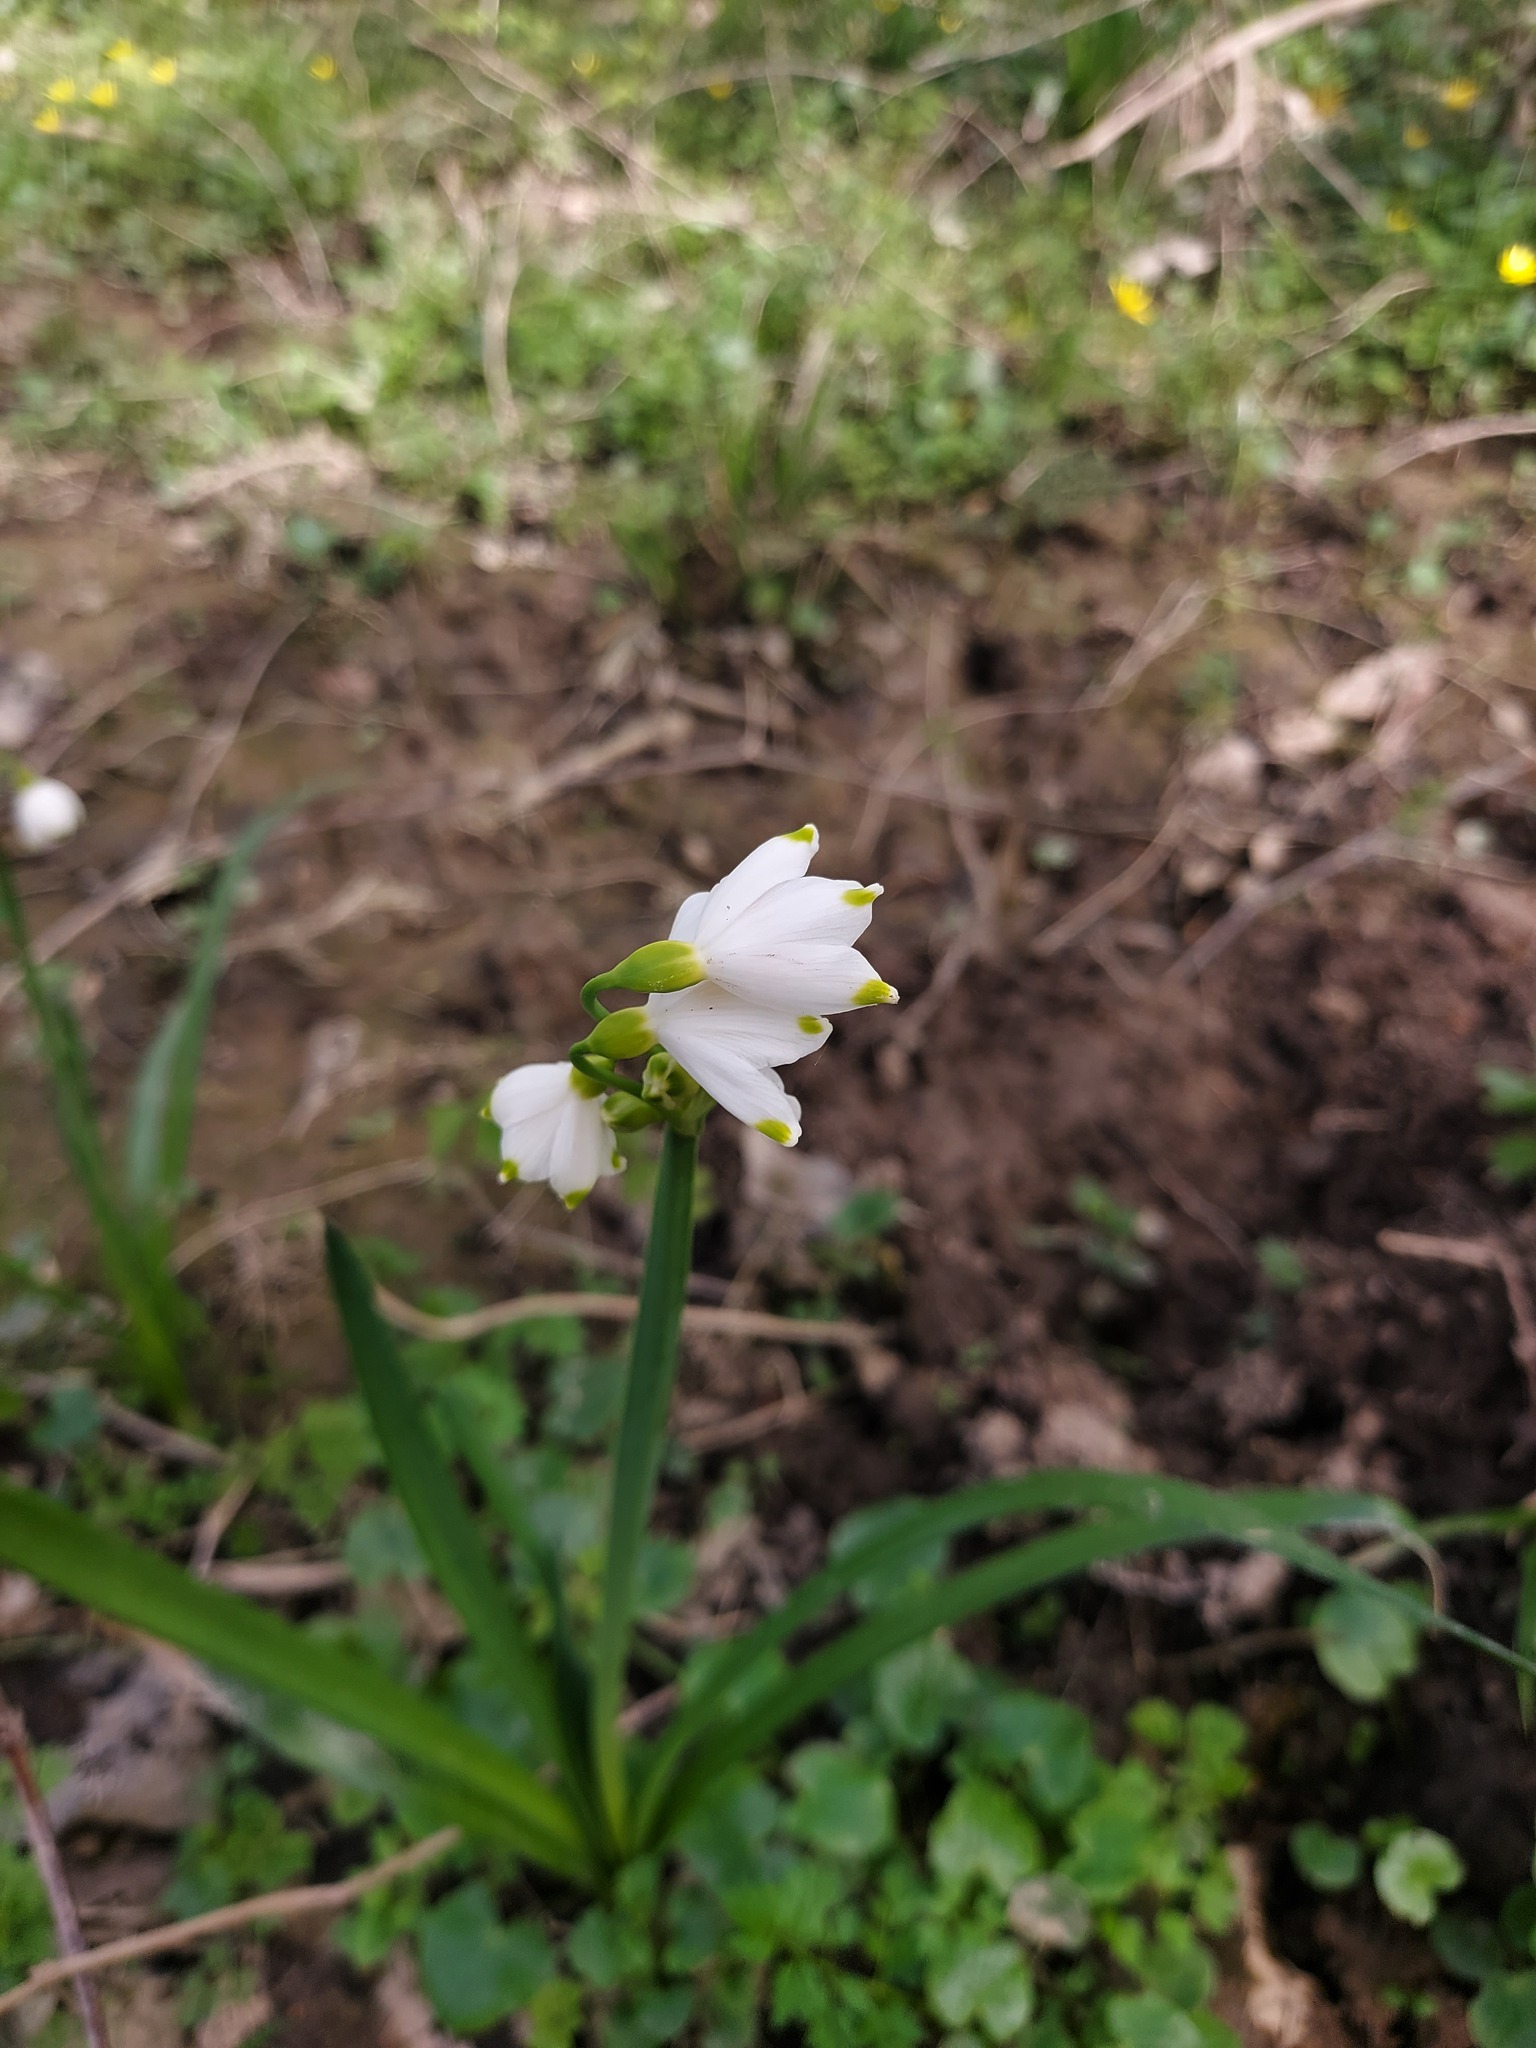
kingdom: Plantae
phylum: Tracheophyta
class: Liliopsida
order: Asparagales
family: Amaryllidaceae
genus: Leucojum
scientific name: Leucojum aestivum
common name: Summer snowflake
